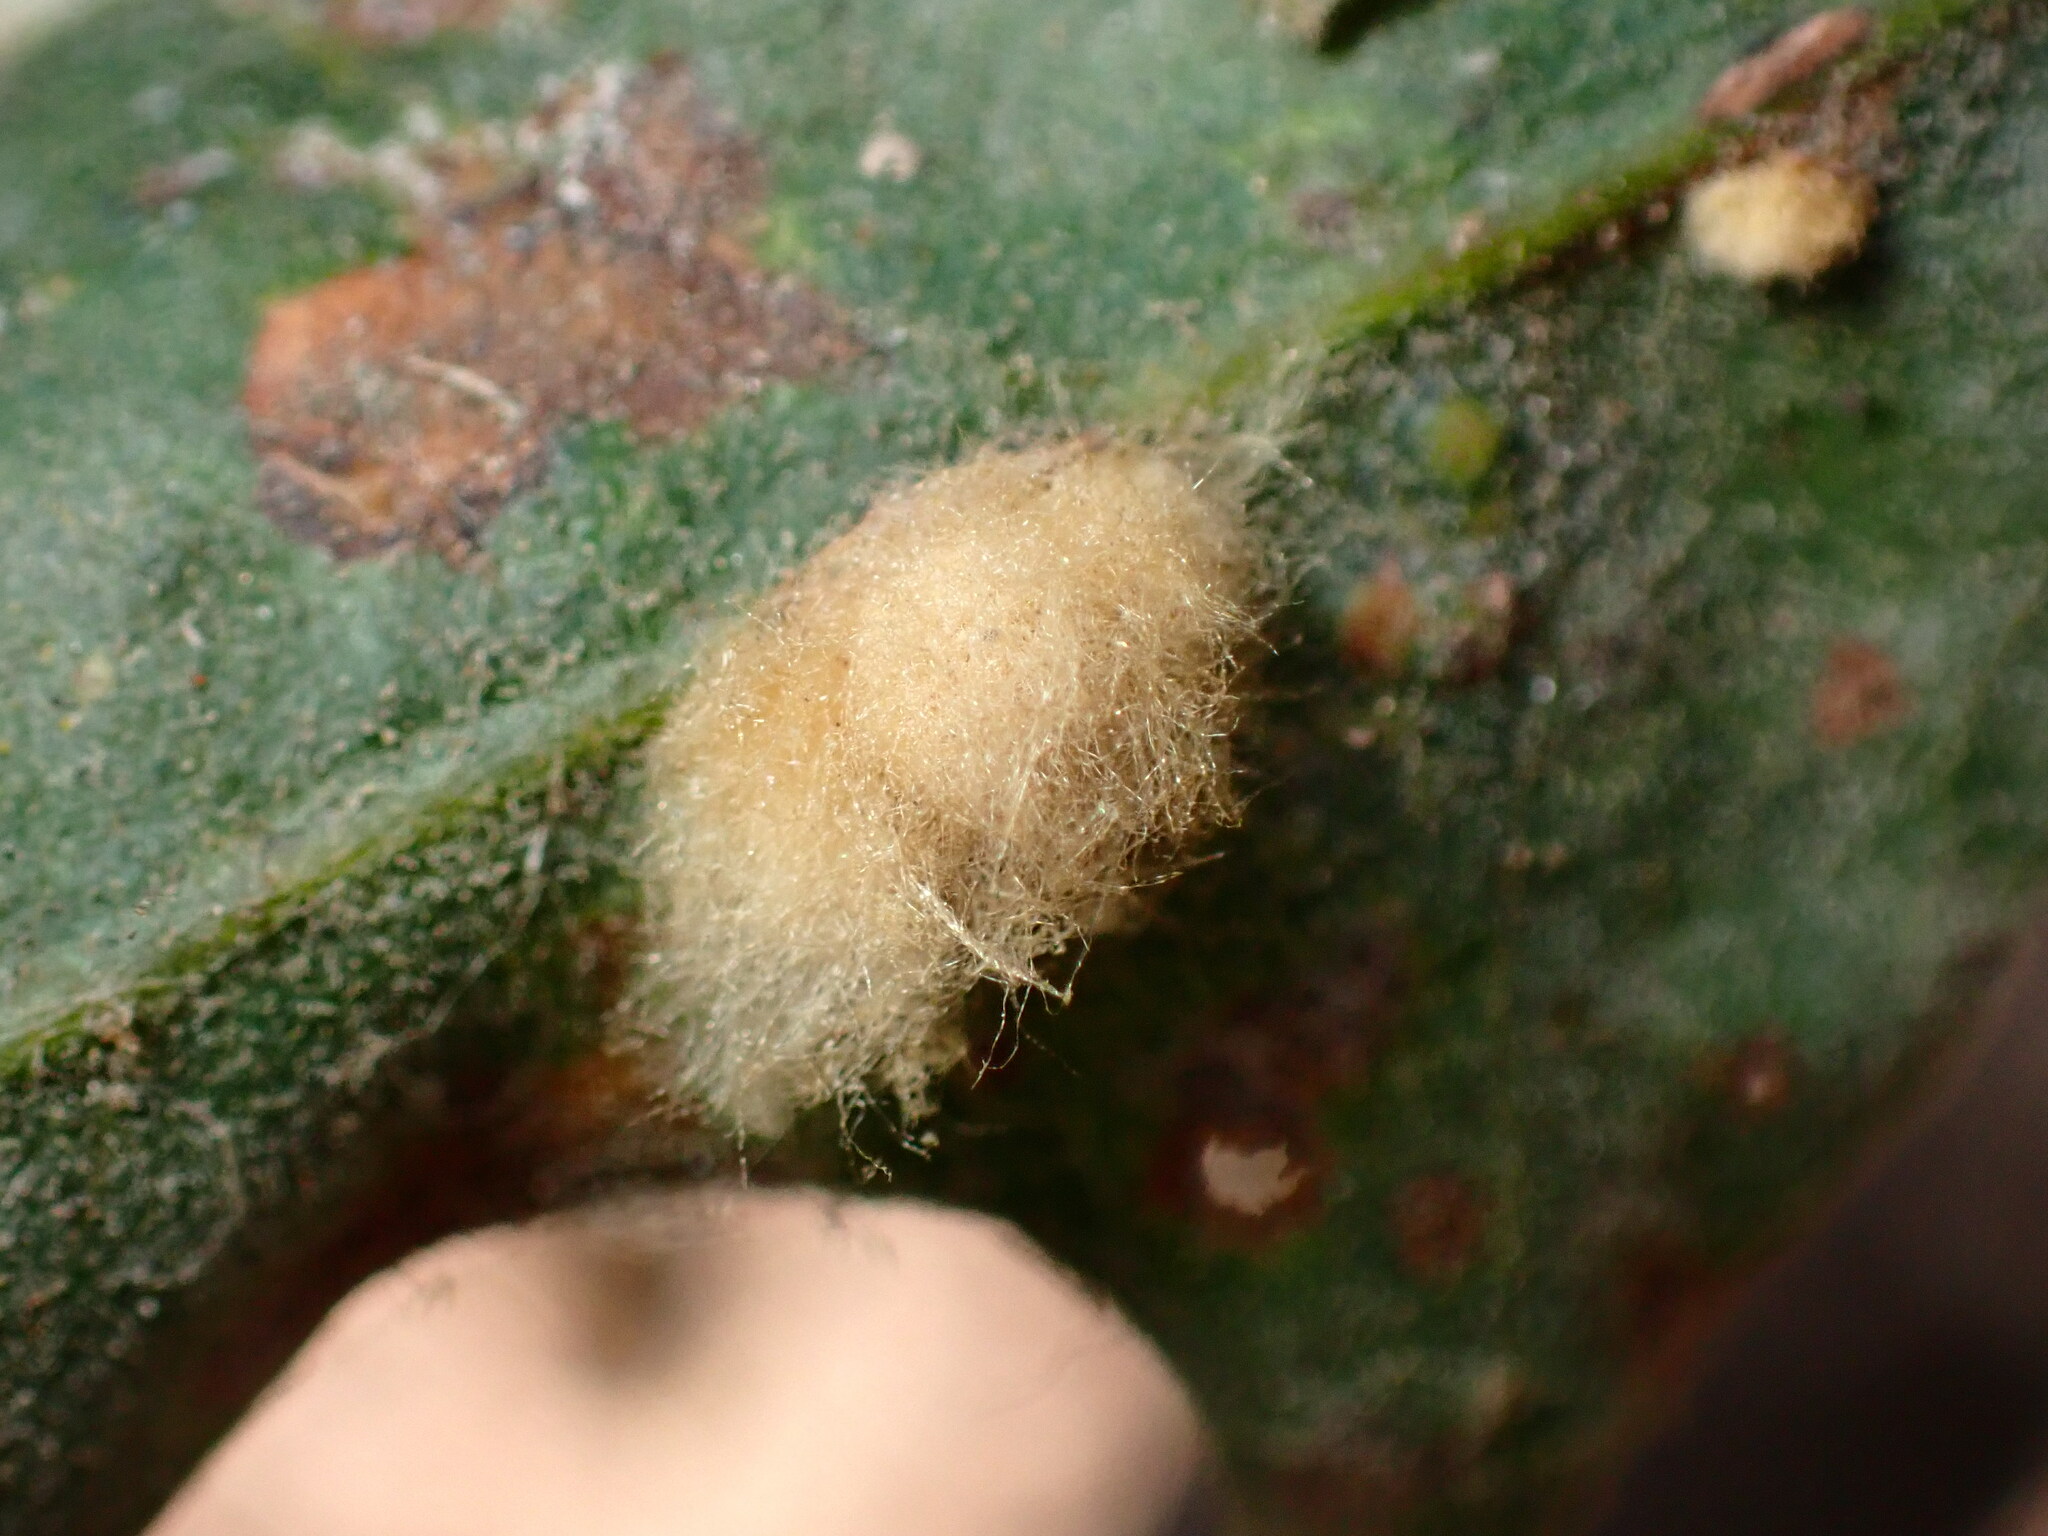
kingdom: Animalia
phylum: Arthropoda
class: Insecta
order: Hymenoptera
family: Cynipidae
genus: Andricus
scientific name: Andricus Druon fullawayi
